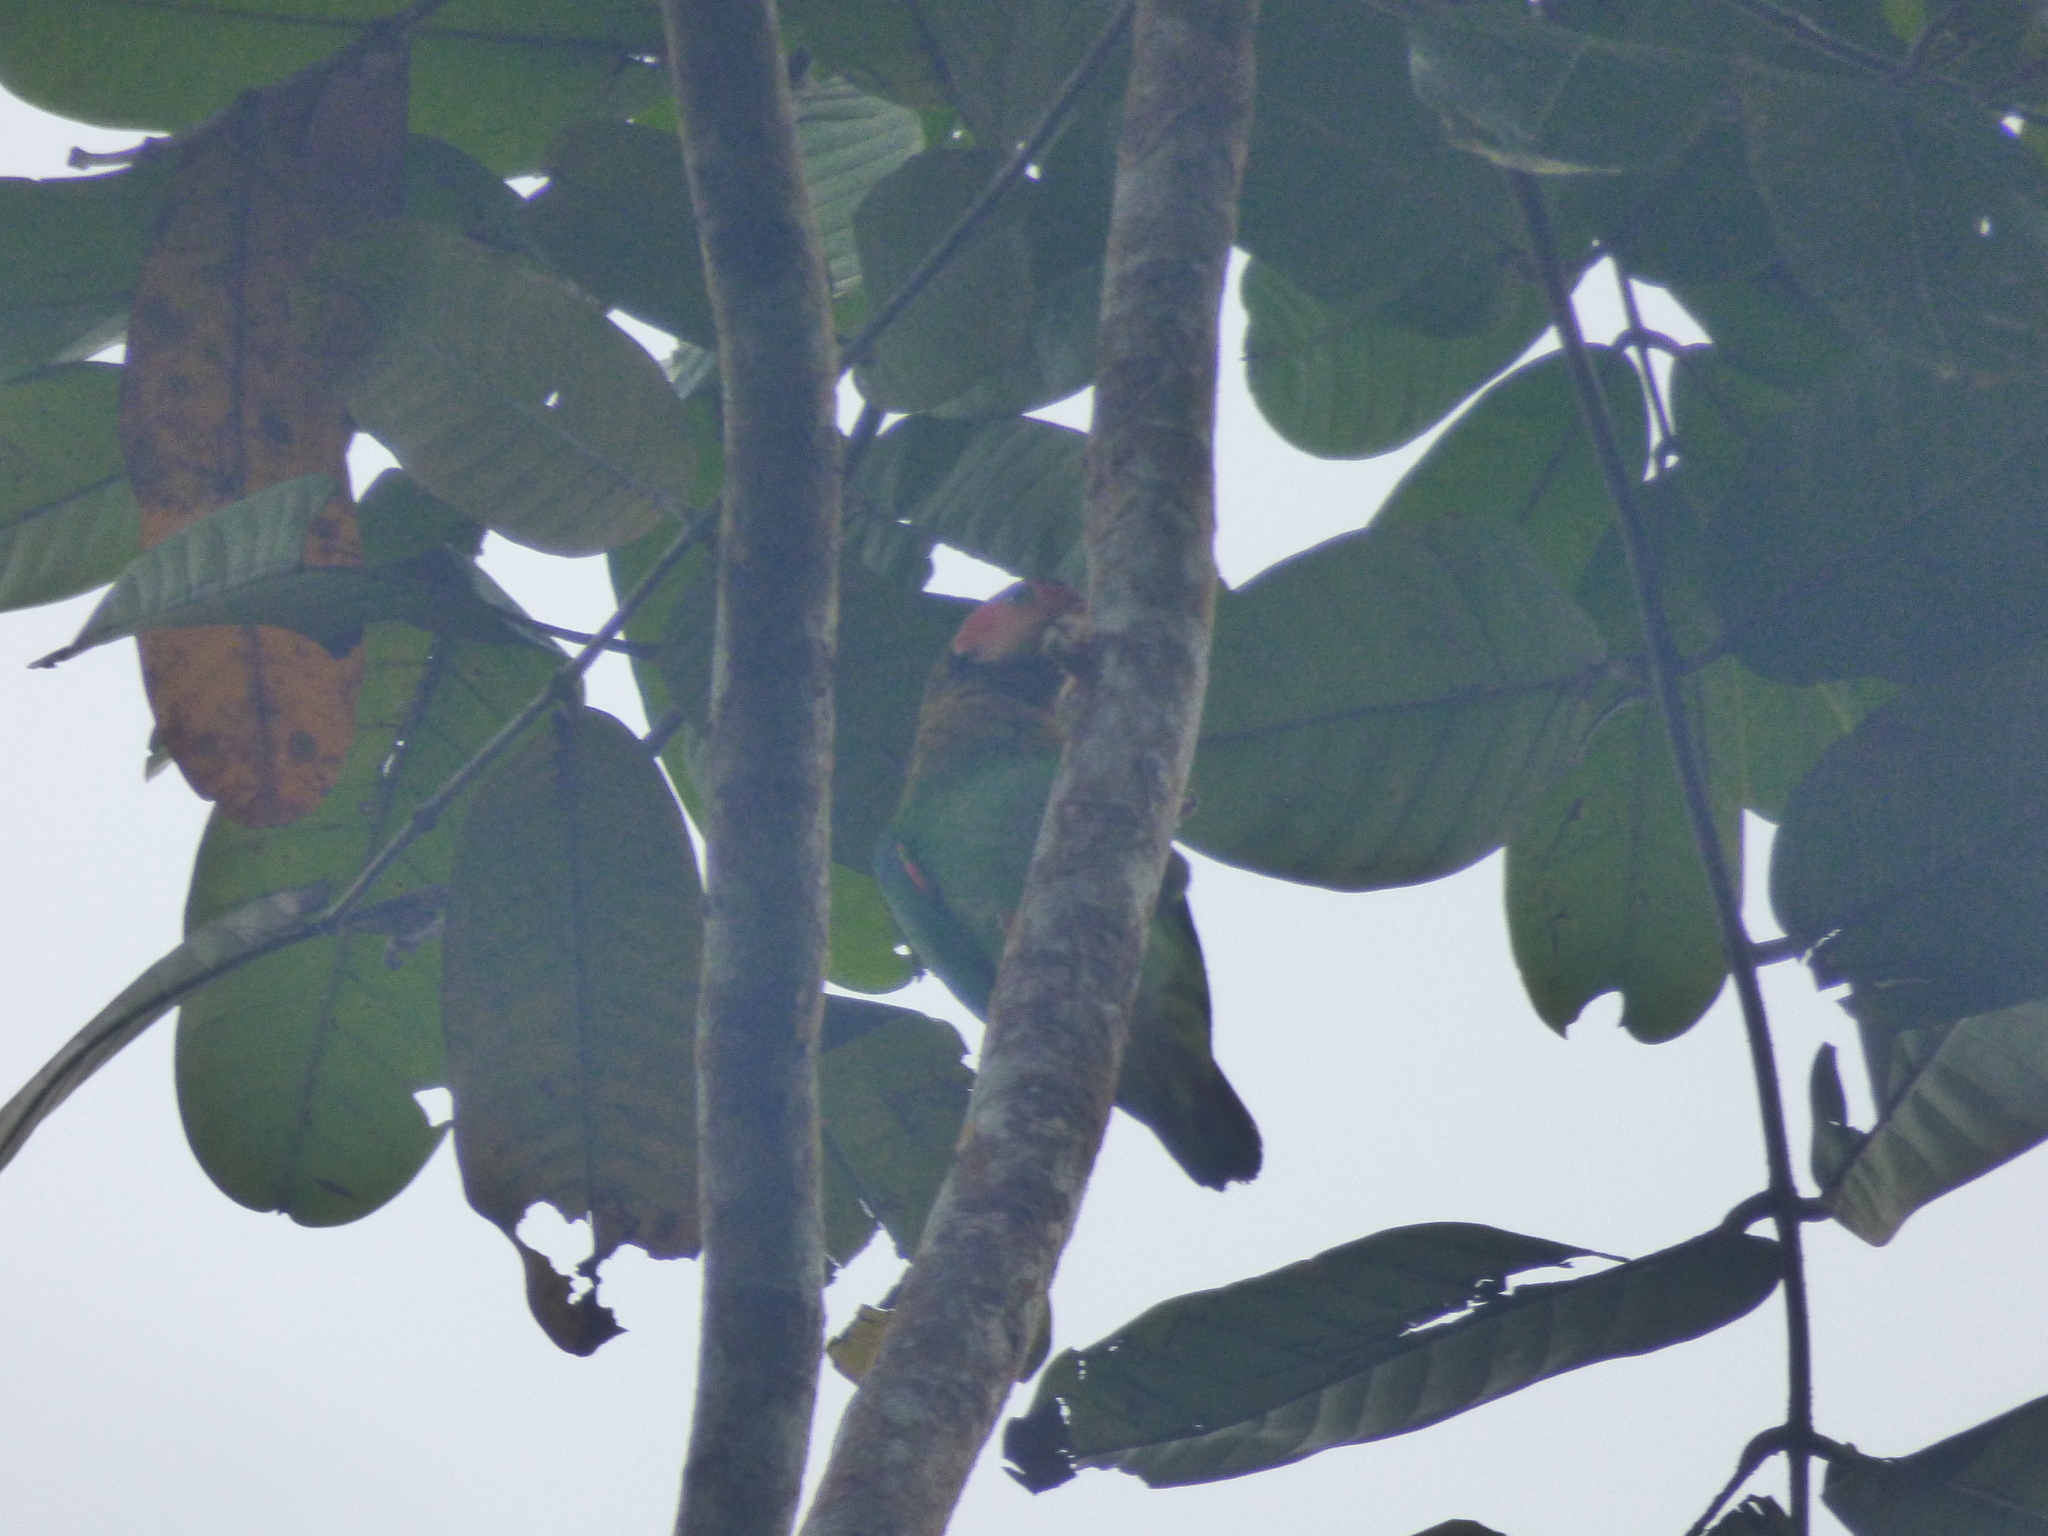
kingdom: Animalia
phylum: Chordata
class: Aves
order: Psittaciformes
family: Psittacidae
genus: Pionopsitta
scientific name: Pionopsitta pulchra
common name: Rose-faced parrot
